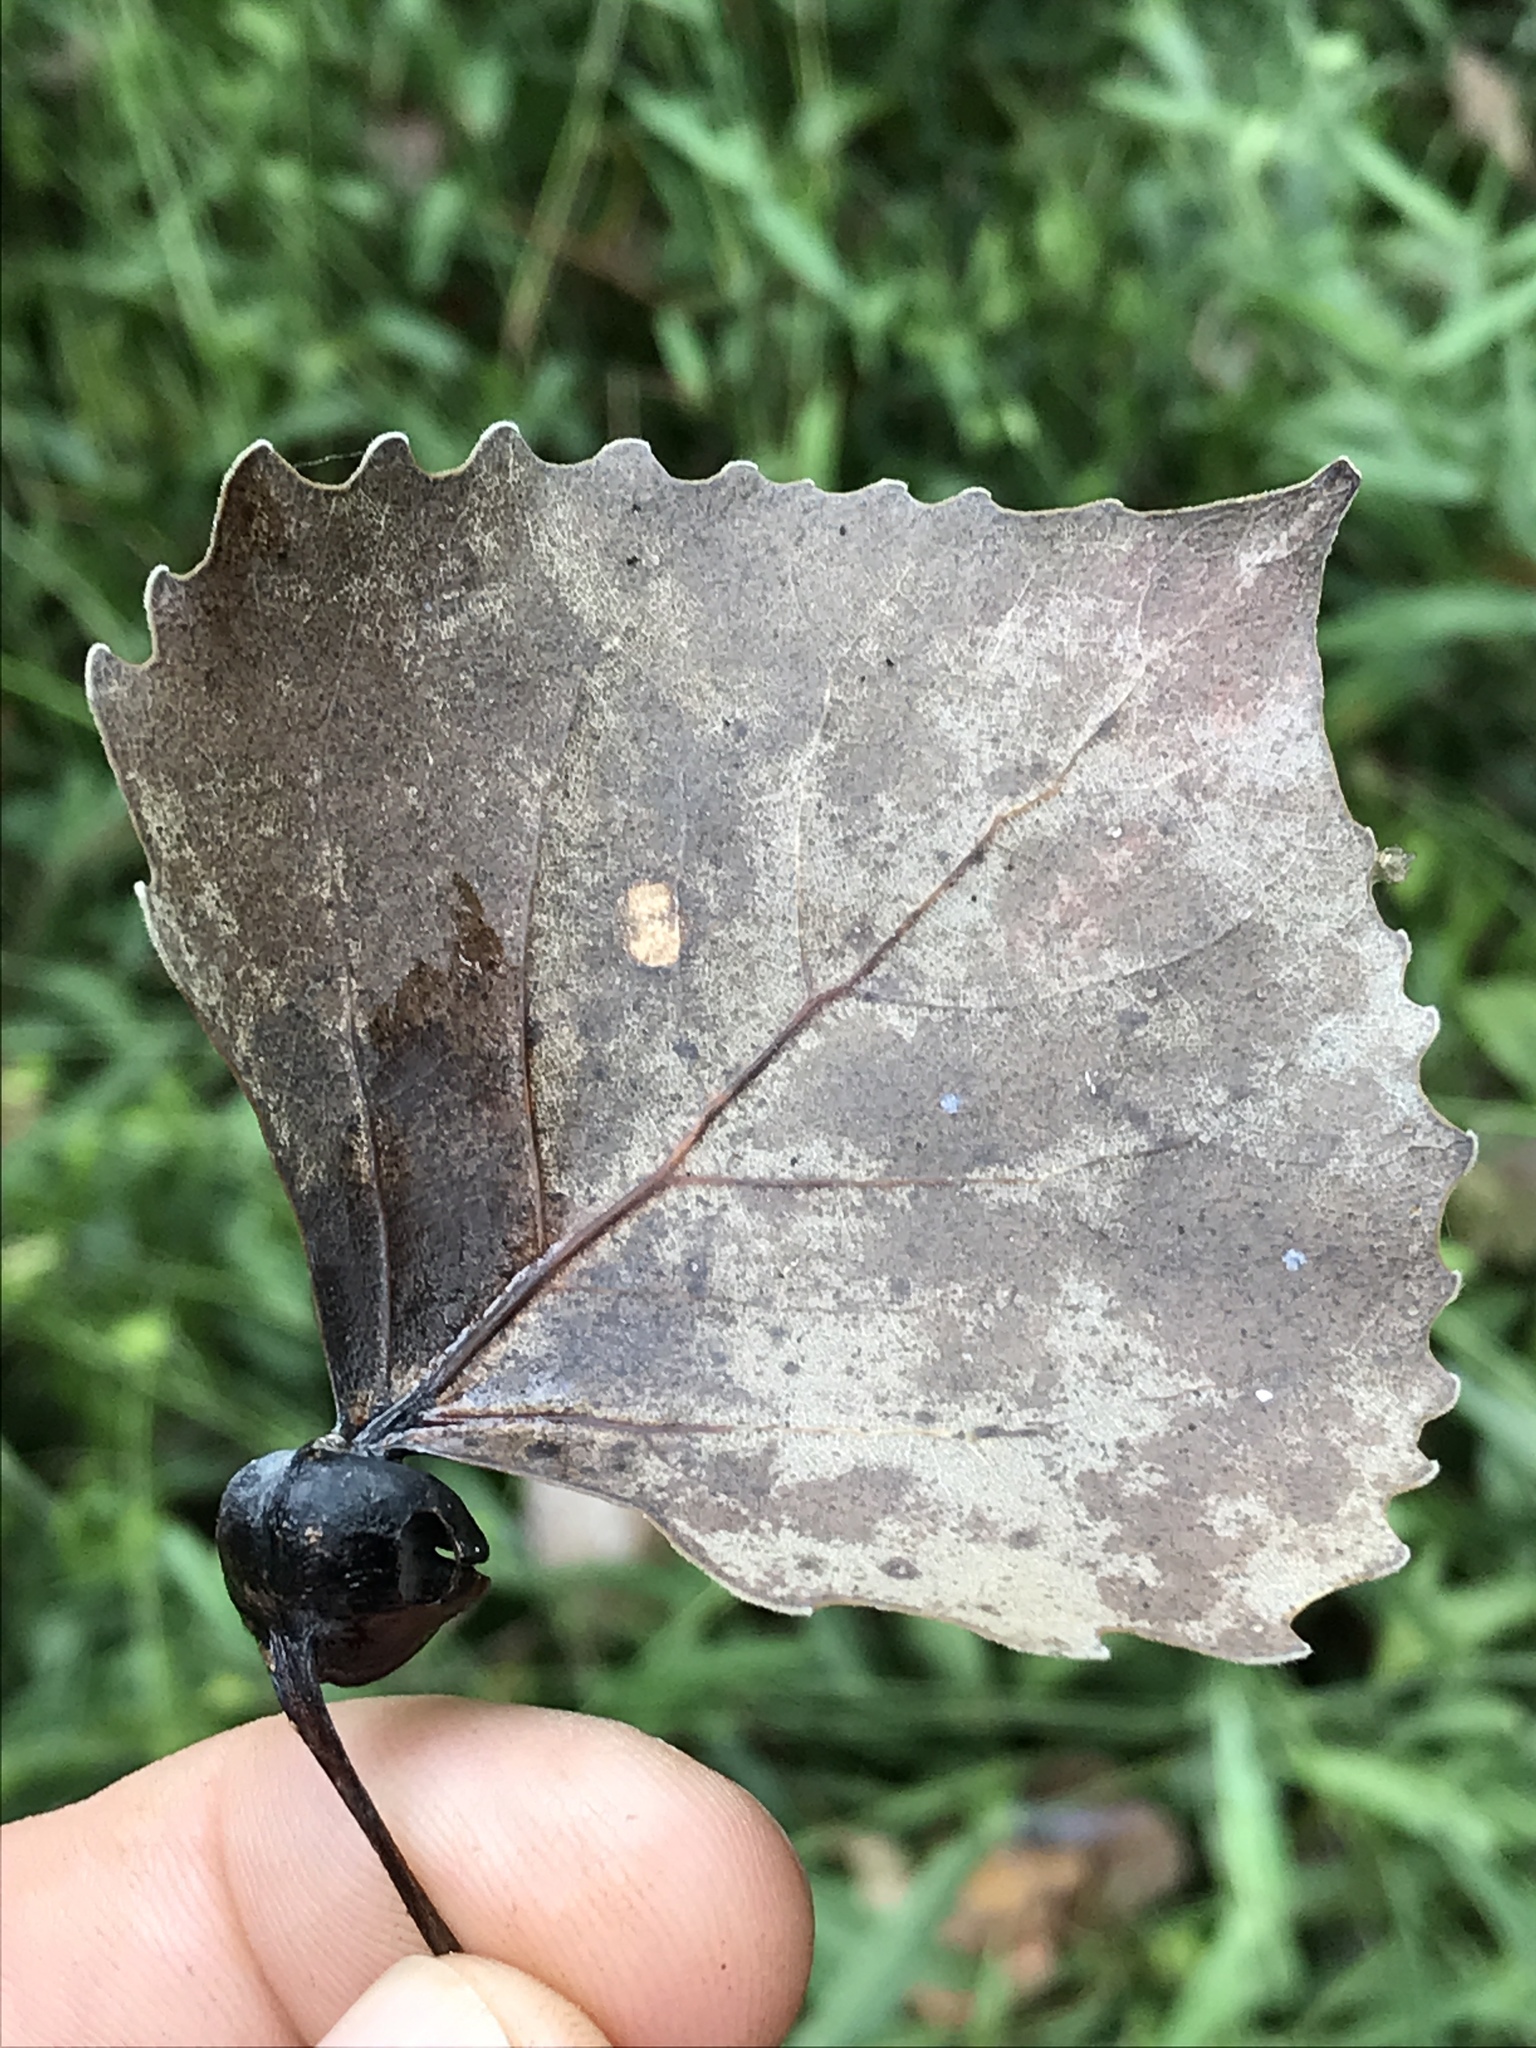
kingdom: Plantae
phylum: Tracheophyta
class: Magnoliopsida
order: Malpighiales
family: Salicaceae
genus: Populus
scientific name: Populus deltoides
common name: Eastern cottonwood
